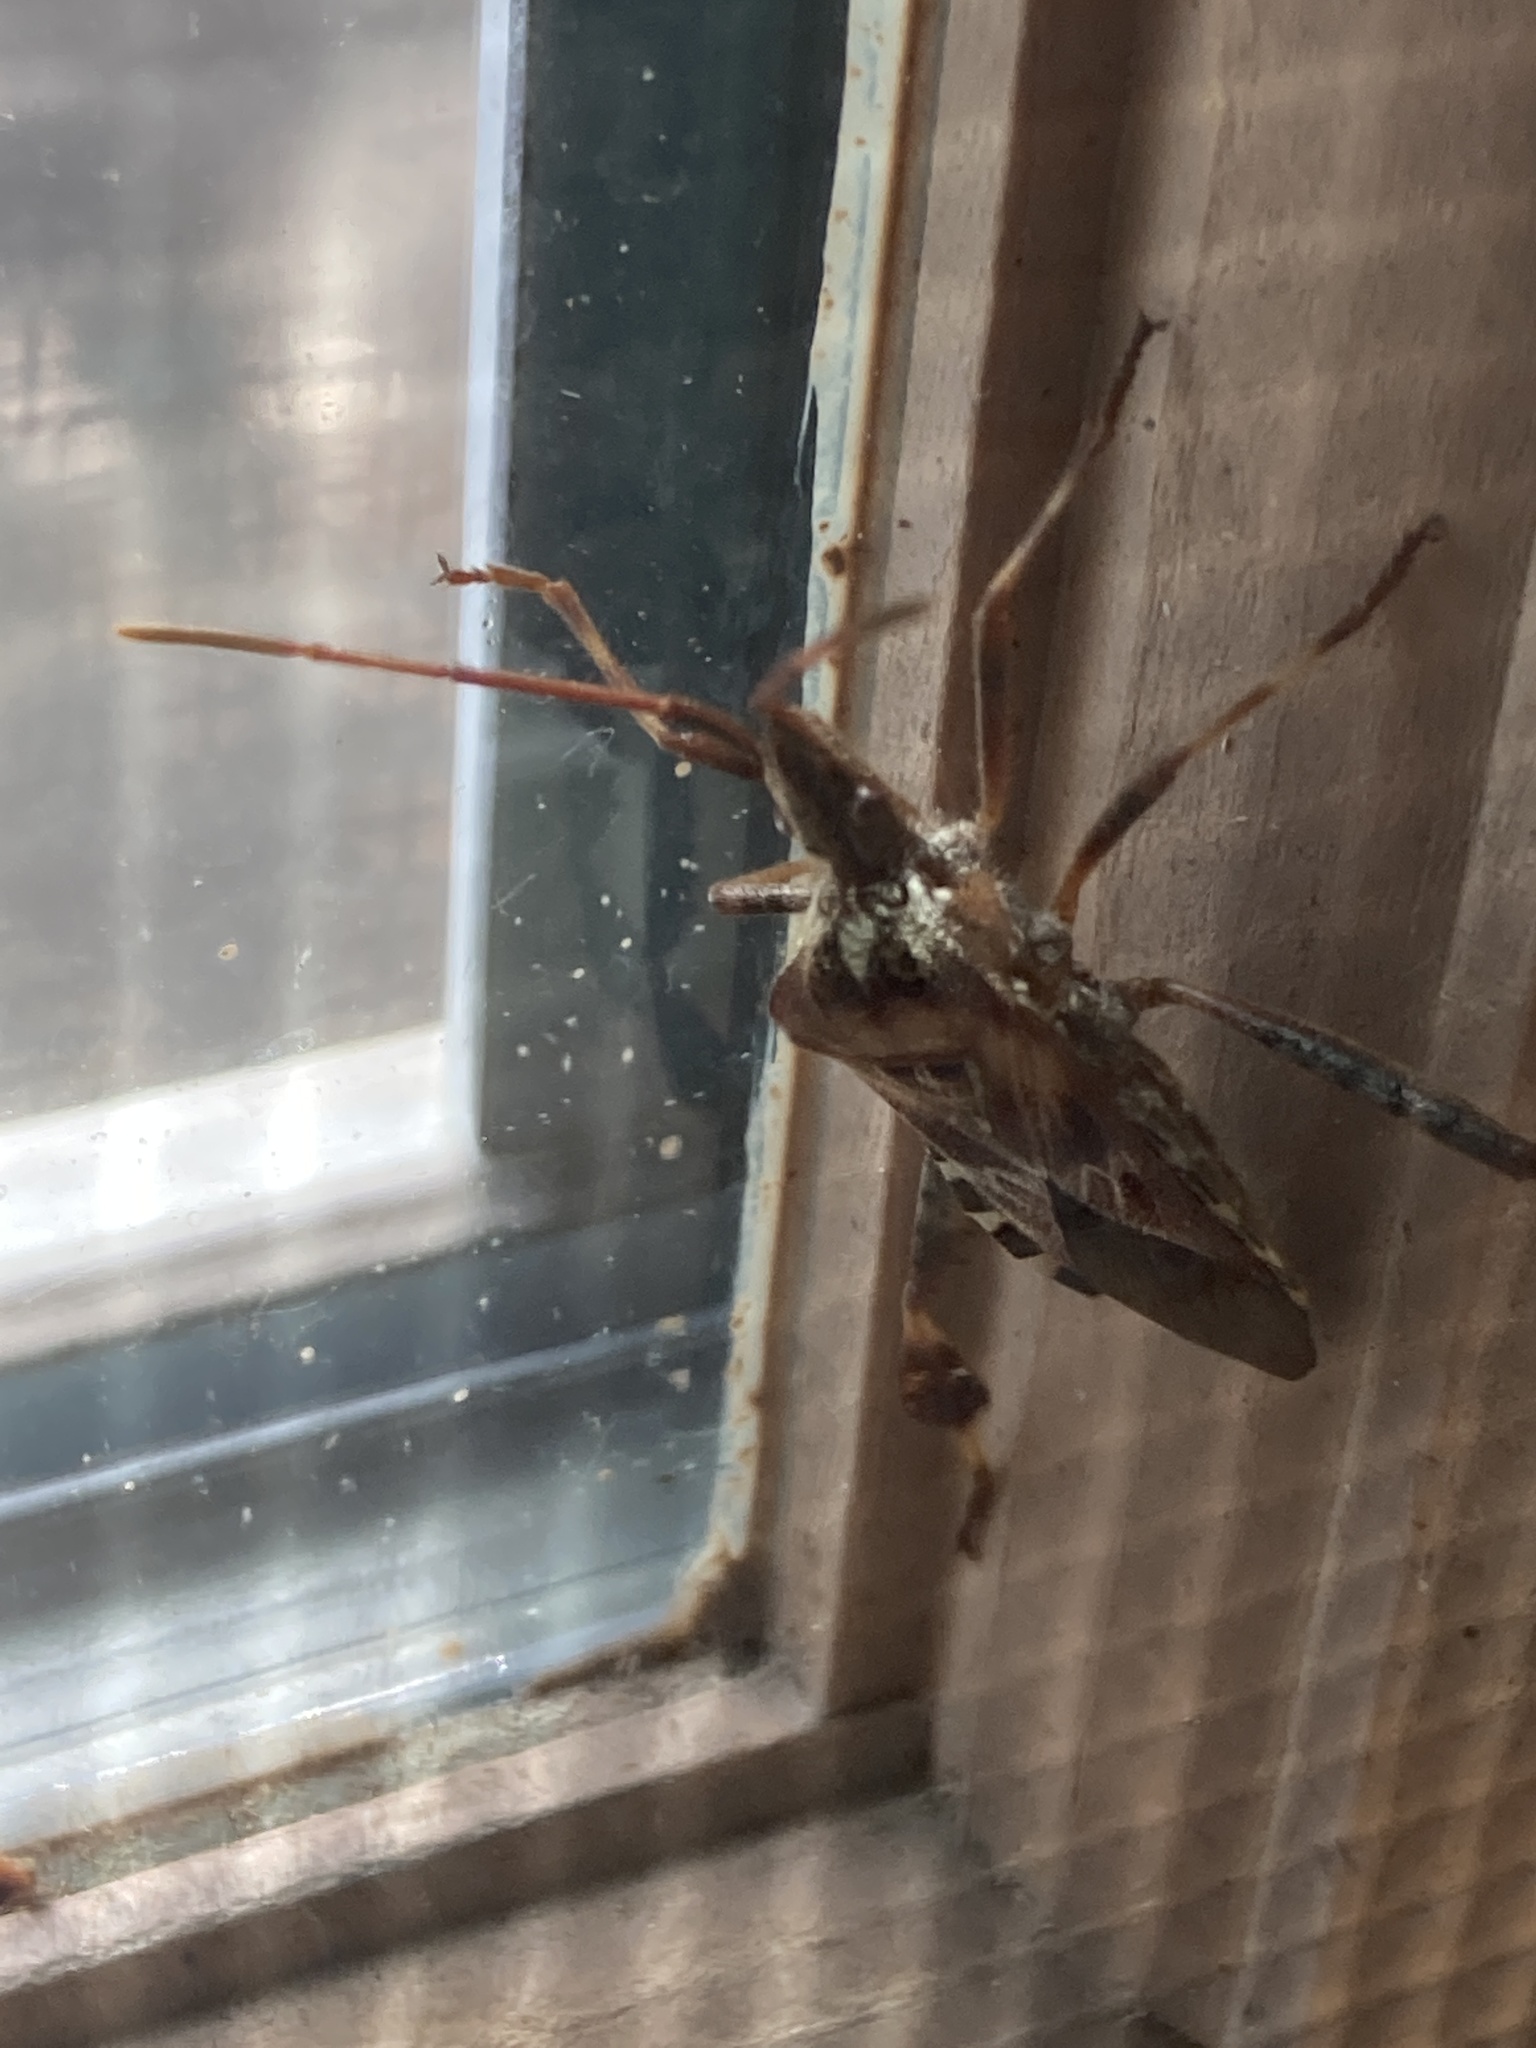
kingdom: Animalia
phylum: Arthropoda
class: Insecta
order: Hemiptera
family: Coreidae
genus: Leptoglossus
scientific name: Leptoglossus occidentalis
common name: Western conifer-seed bug
